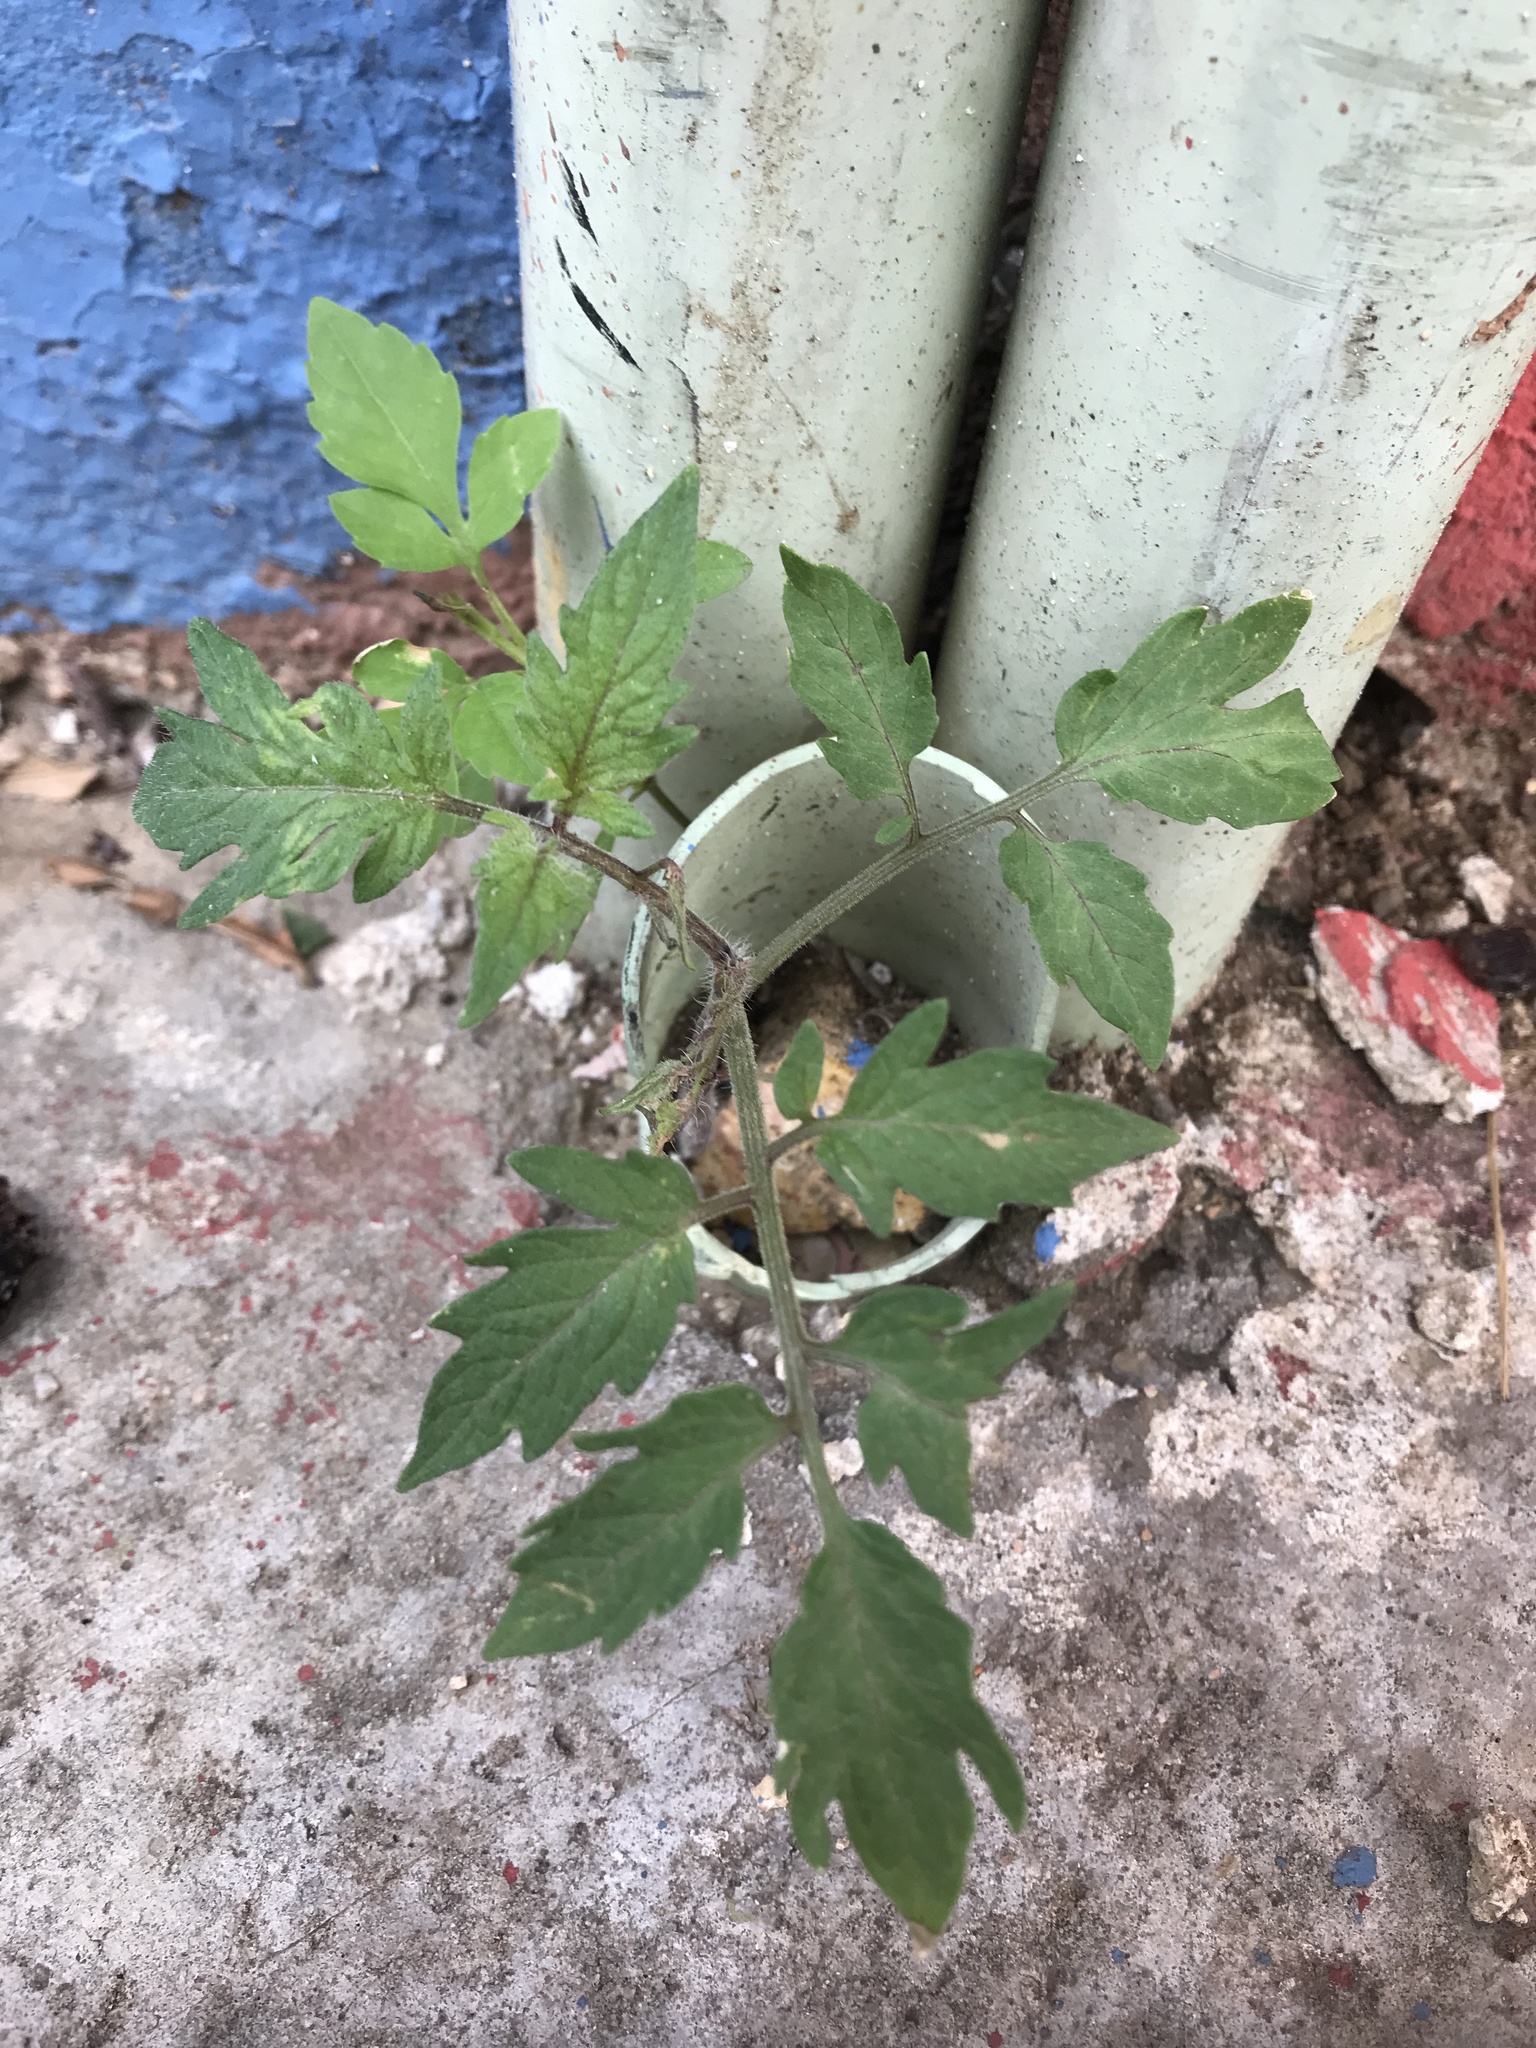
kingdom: Plantae
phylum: Tracheophyta
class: Magnoliopsida
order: Solanales
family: Solanaceae
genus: Solanum
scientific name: Solanum lycopersicum
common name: Garden tomato
